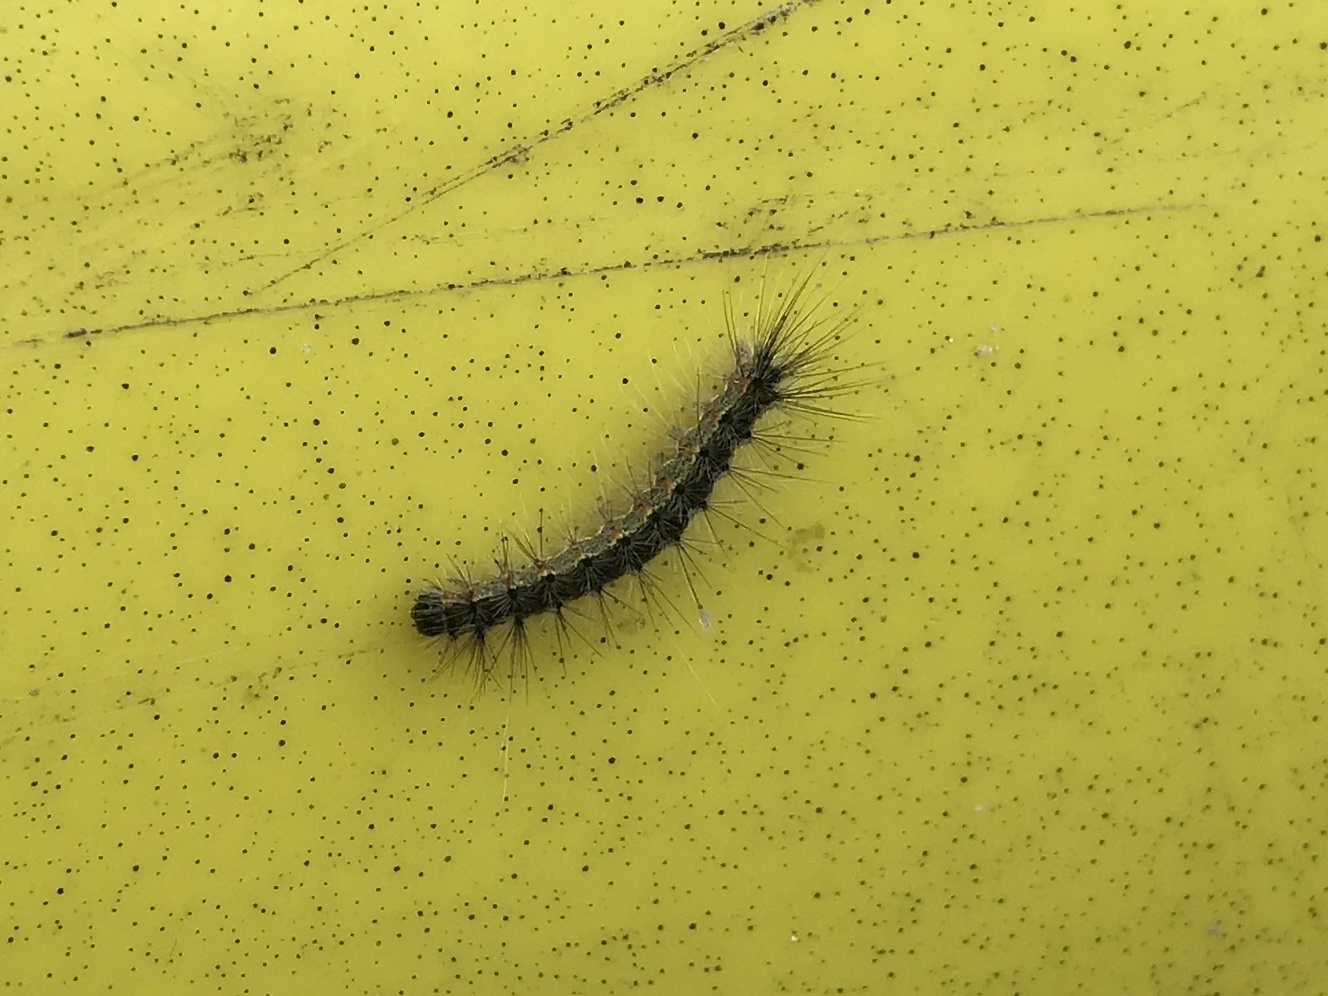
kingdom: Animalia
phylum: Arthropoda
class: Insecta
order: Lepidoptera
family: Erebidae
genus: Hyphantria
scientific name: Hyphantria cunea
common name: American white moth
